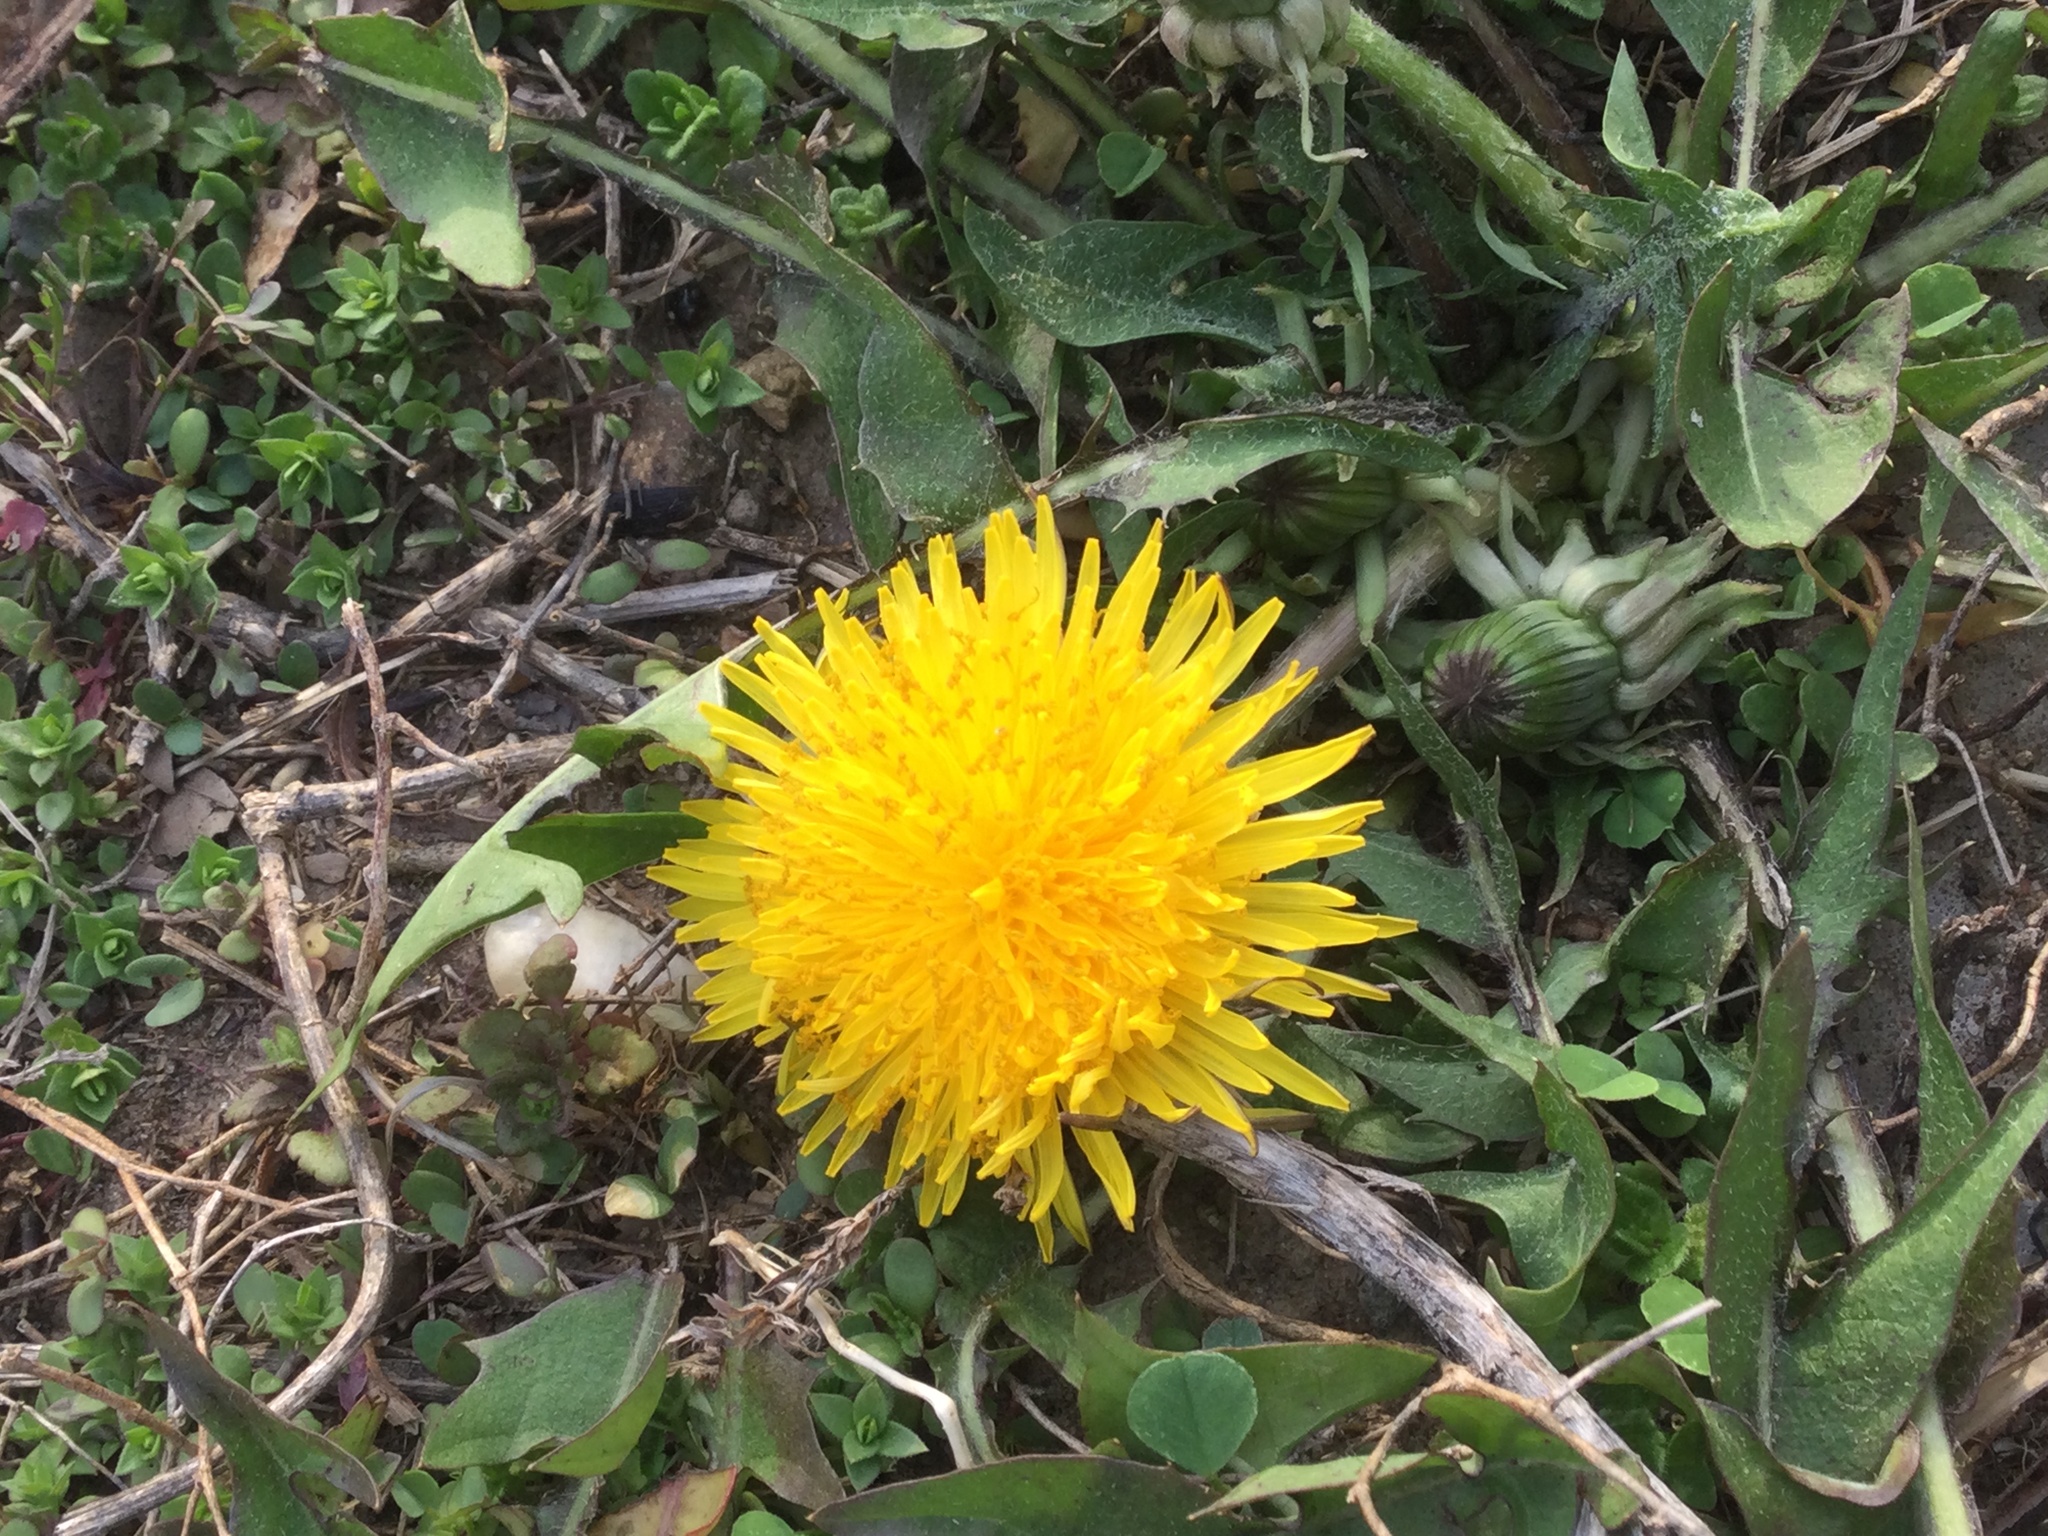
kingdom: Plantae
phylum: Tracheophyta
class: Magnoliopsida
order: Asterales
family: Asteraceae
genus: Taraxacum
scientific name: Taraxacum officinale
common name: Common dandelion
